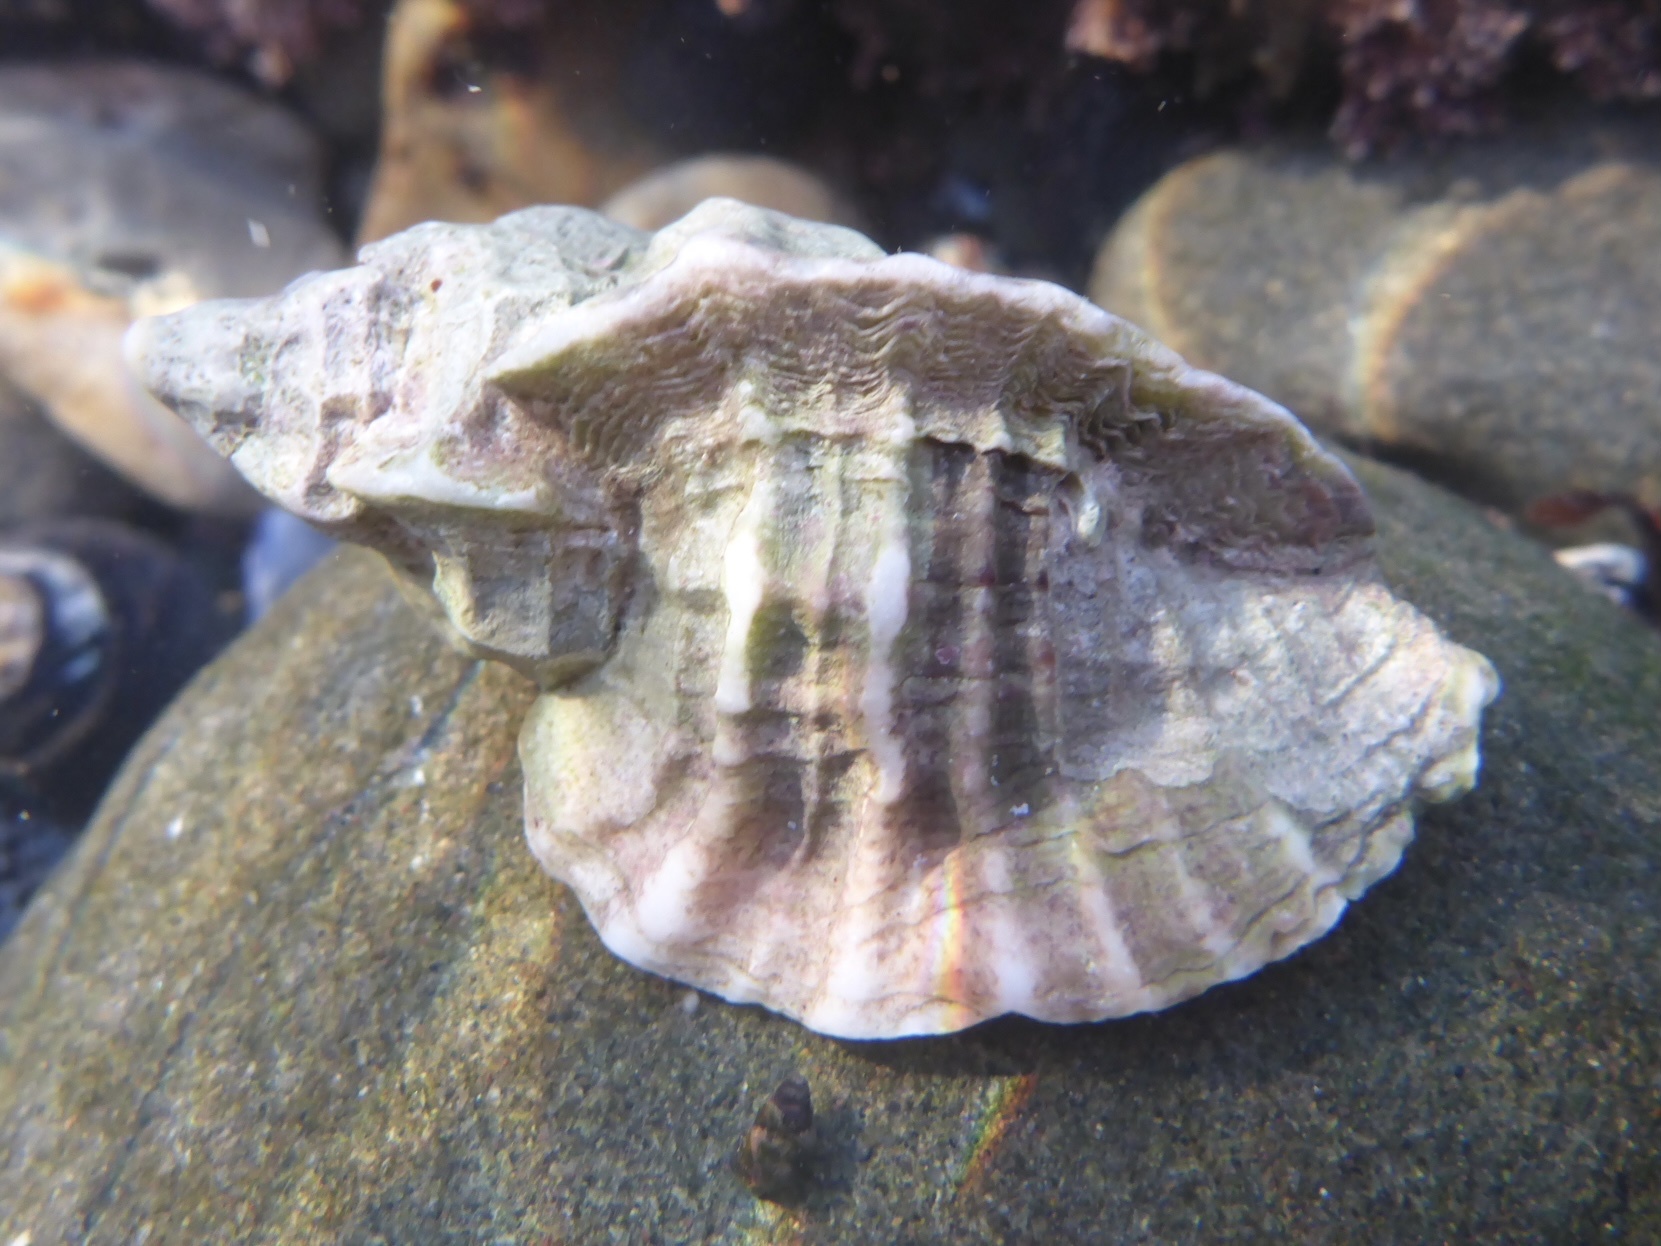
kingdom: Animalia
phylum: Mollusca
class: Gastropoda
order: Neogastropoda
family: Muricidae
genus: Ceratostoma
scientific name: Ceratostoma foliatum
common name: Foliate thorn purpura
